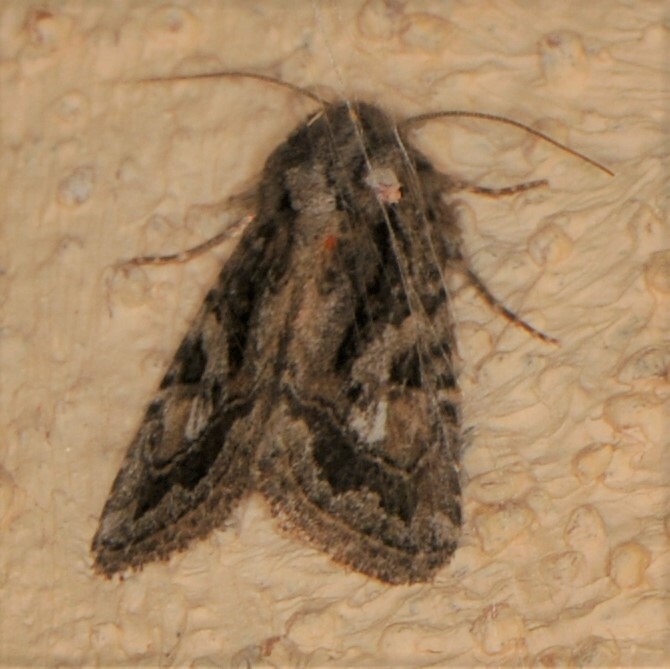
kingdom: Animalia
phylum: Arthropoda
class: Insecta
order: Lepidoptera
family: Noctuidae
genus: Ulolonche
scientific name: Ulolonche orbiculata
